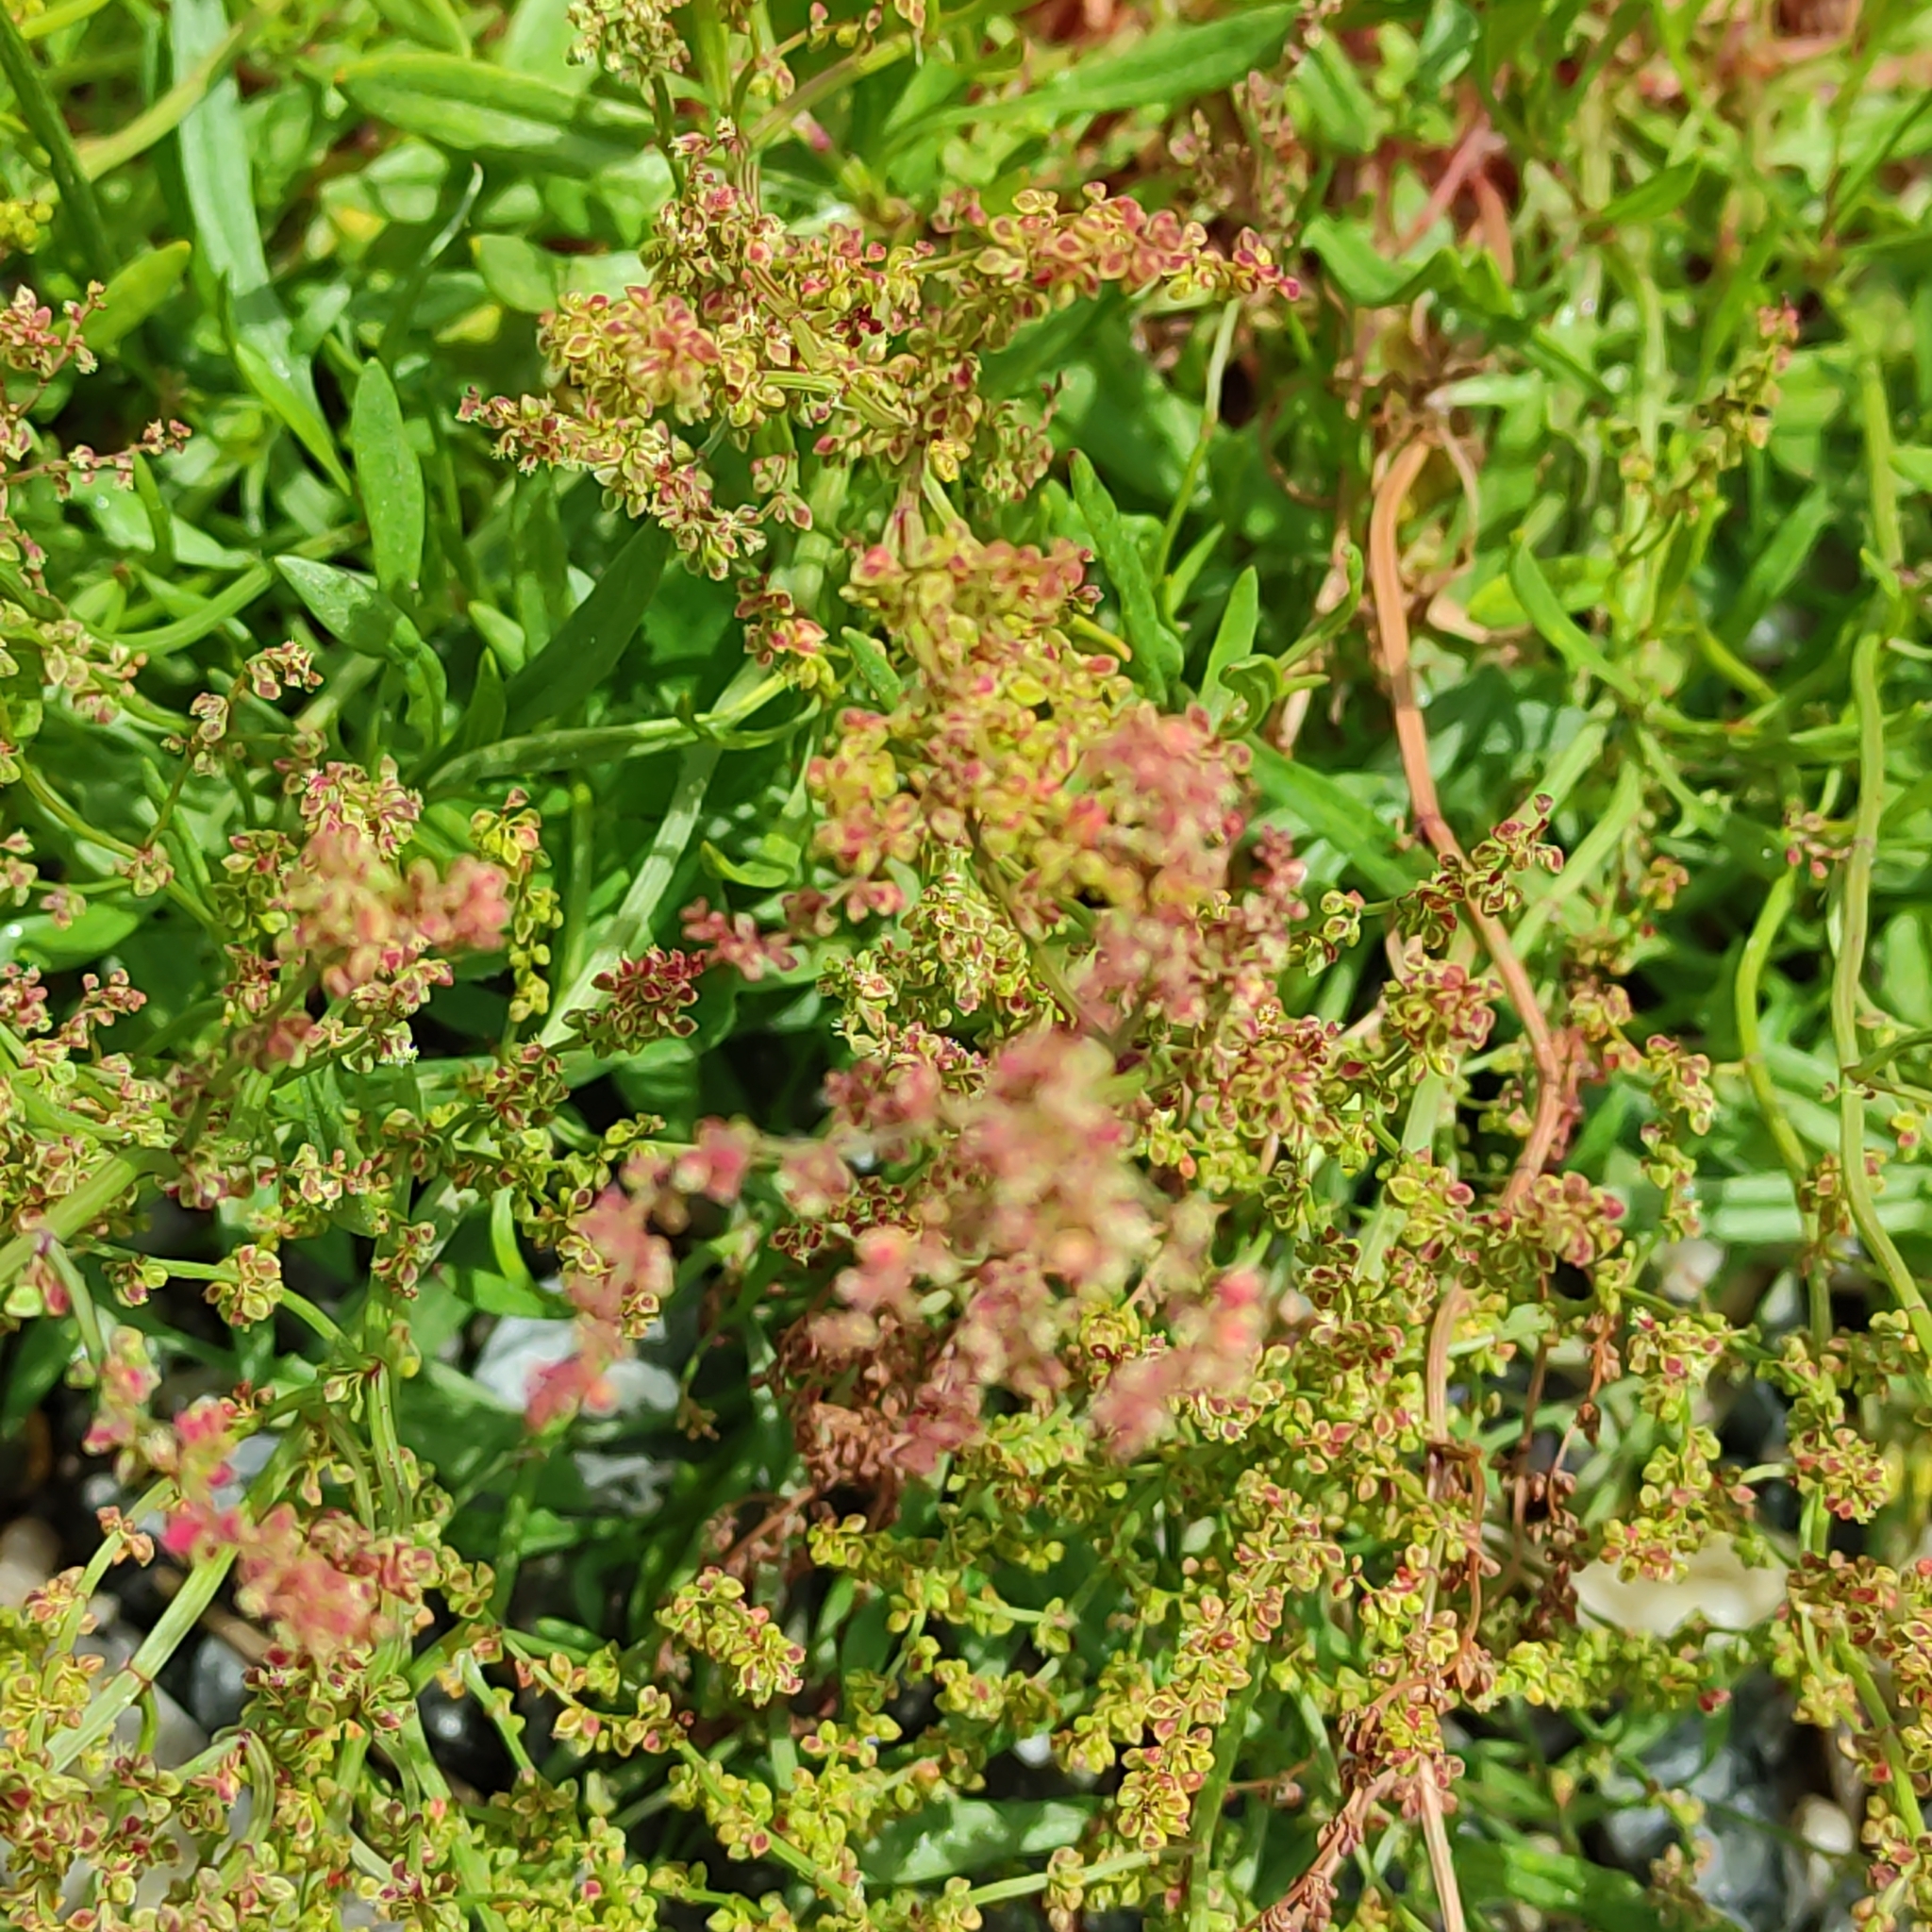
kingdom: Plantae
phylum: Tracheophyta
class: Magnoliopsida
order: Caryophyllales
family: Polygonaceae
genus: Rumex
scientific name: Rumex acetosella
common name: Common sheep sorrel
